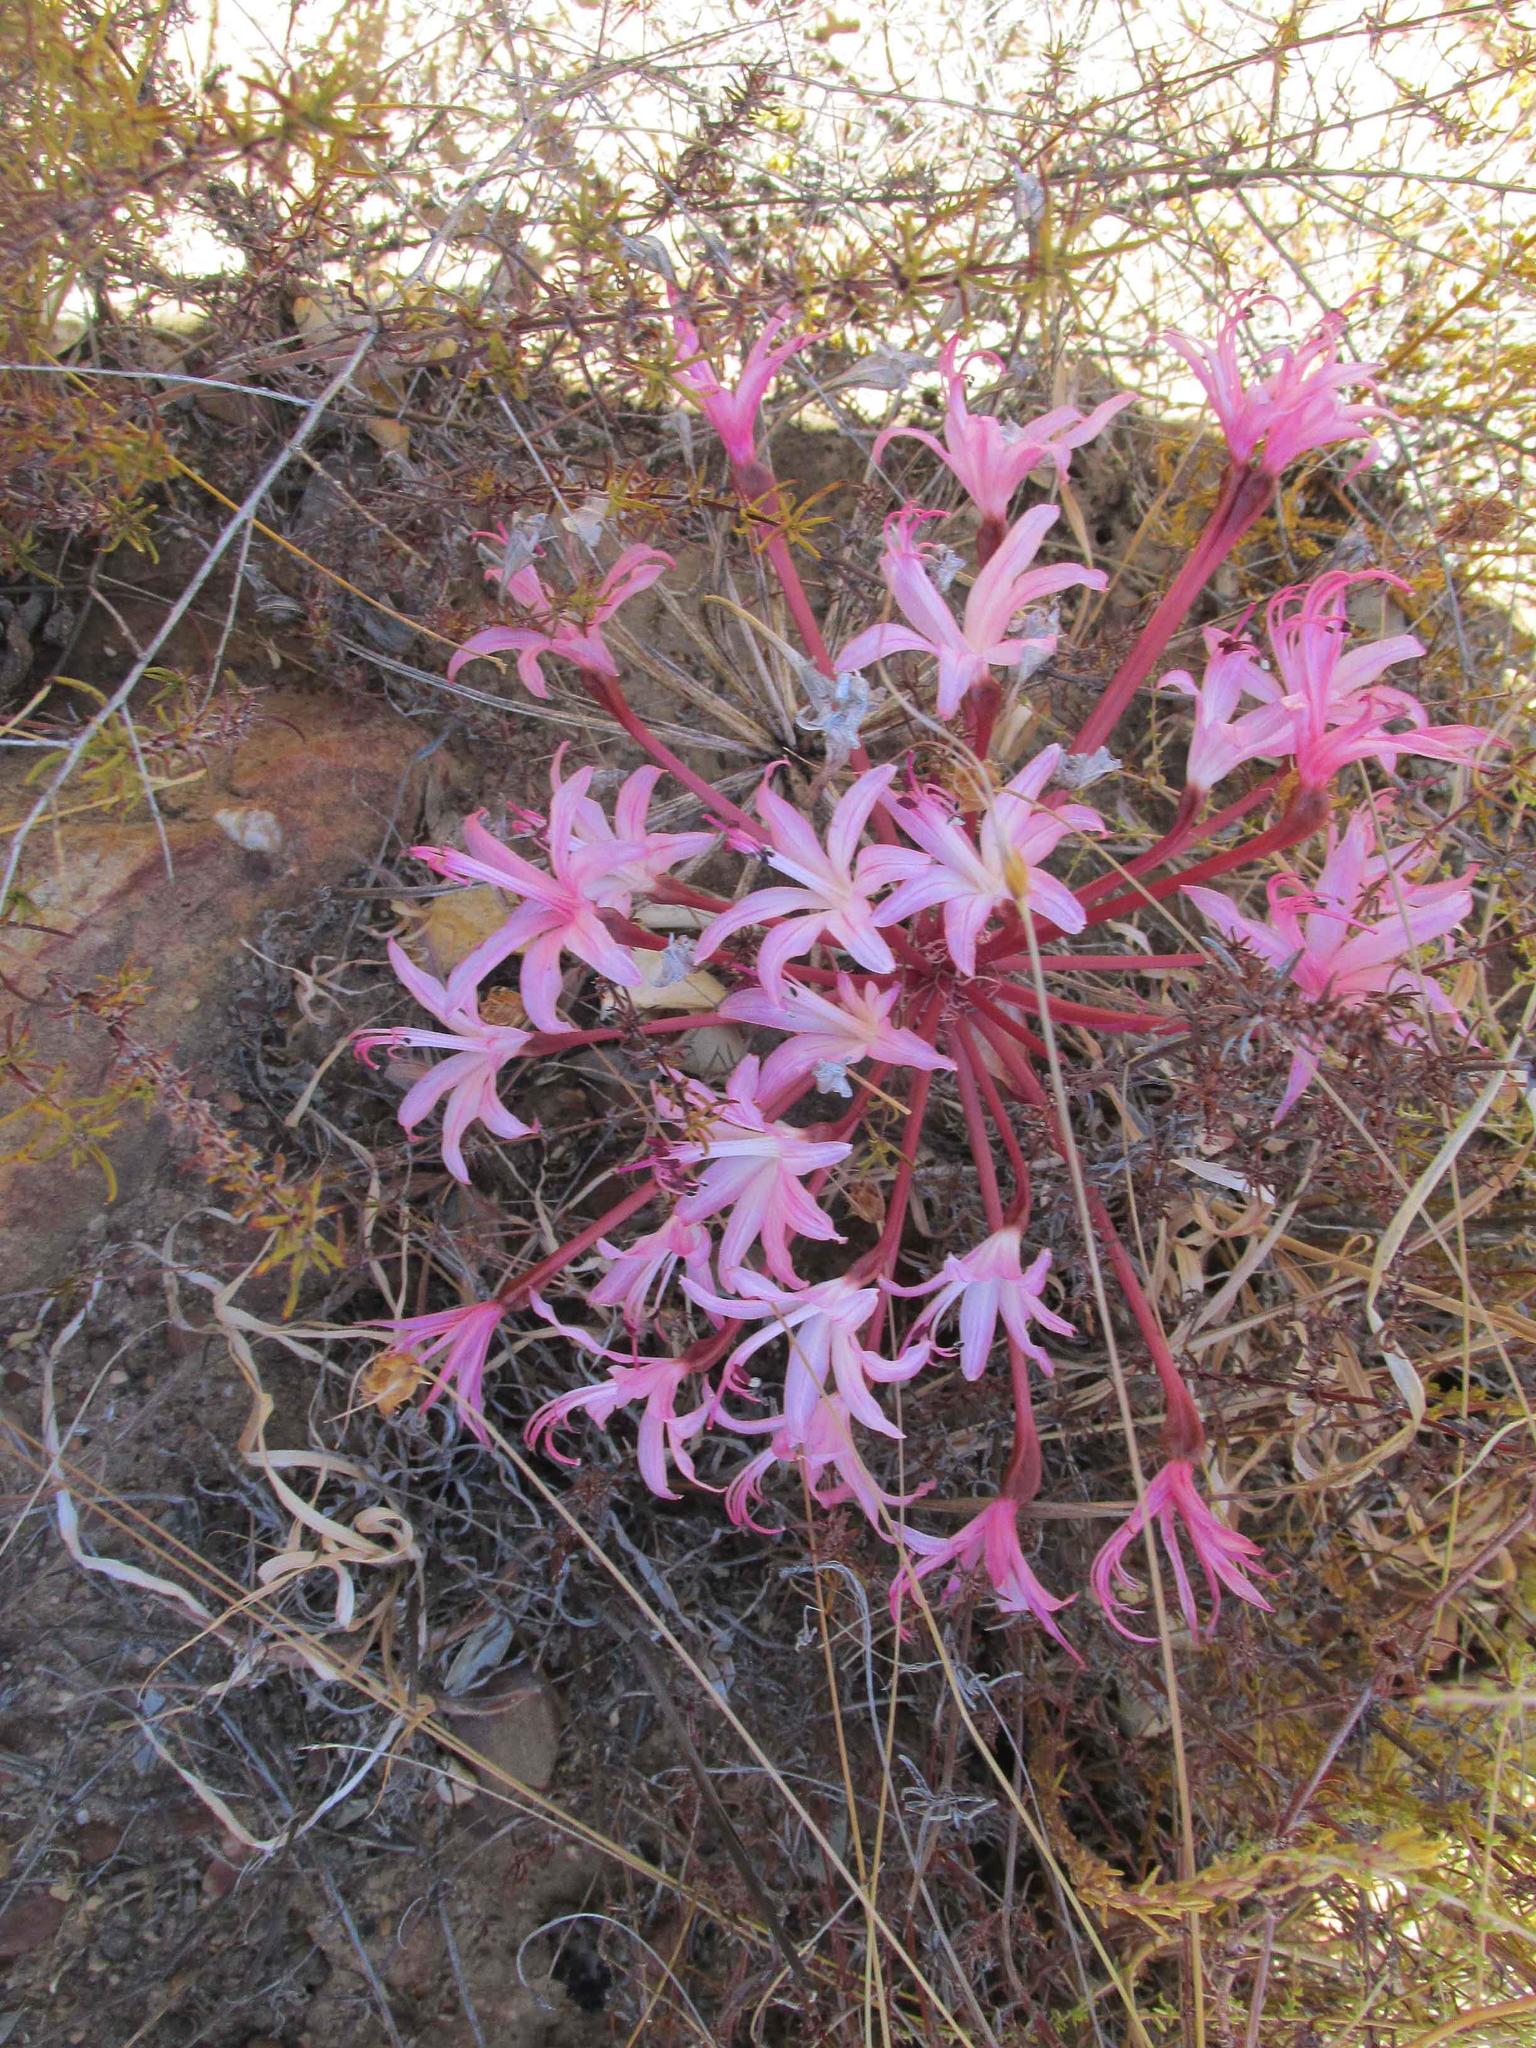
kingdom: Plantae
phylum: Tracheophyta
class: Liliopsida
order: Asparagales
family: Amaryllidaceae
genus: Brunsvigia
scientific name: Brunsvigia nervosa
